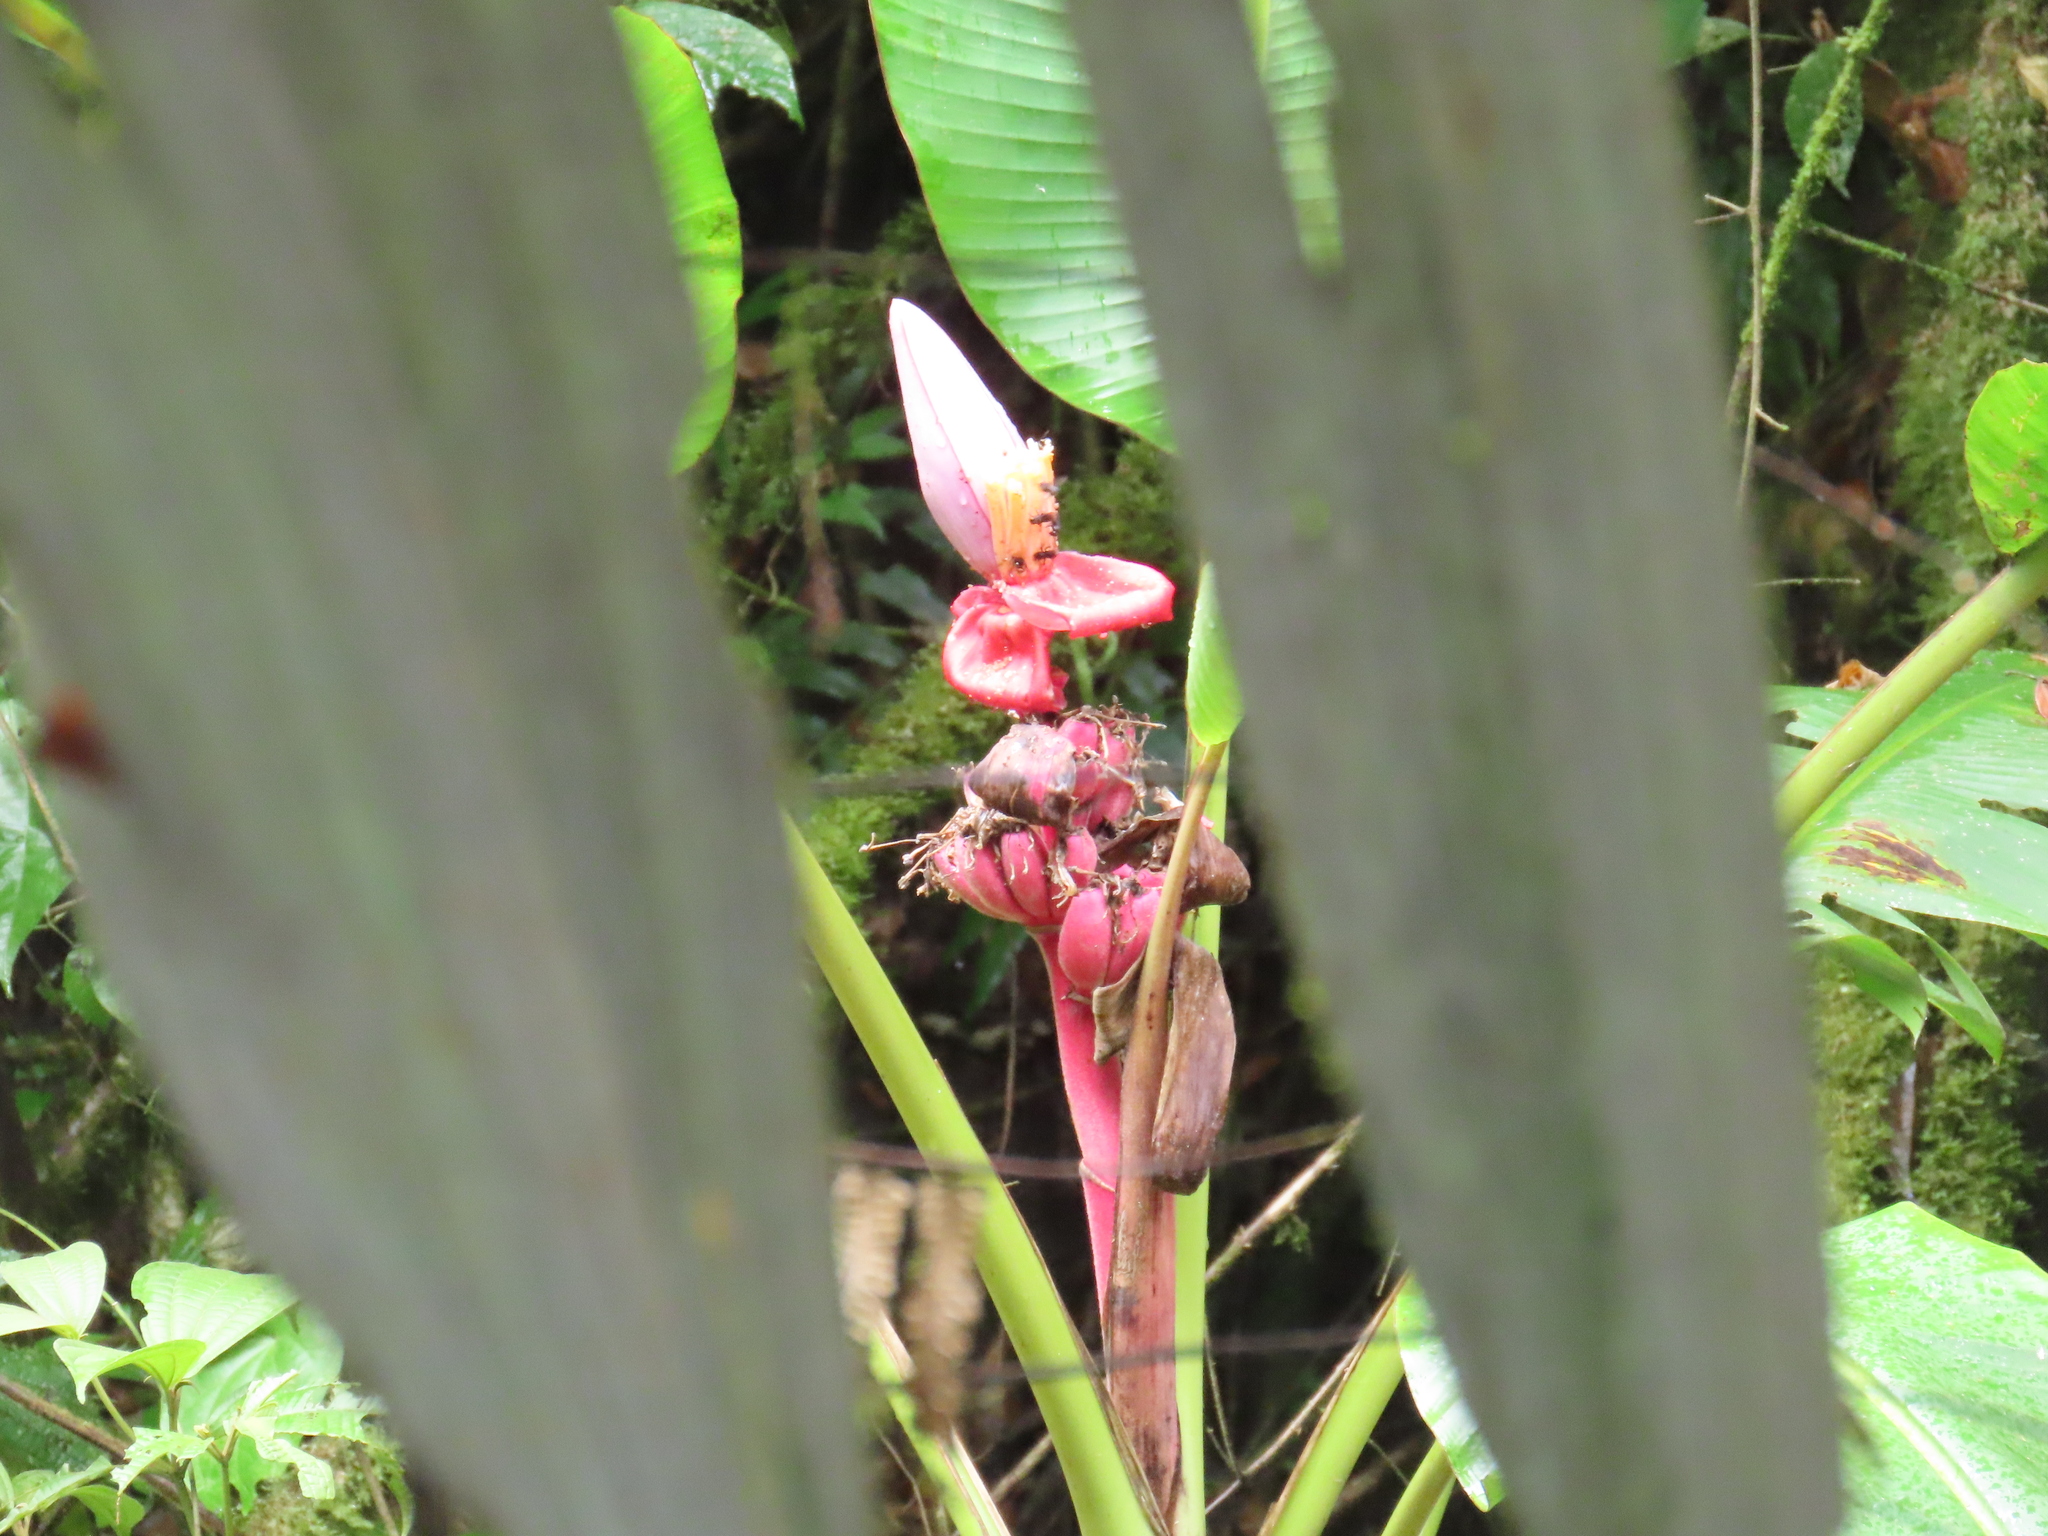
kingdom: Plantae
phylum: Tracheophyta
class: Liliopsida
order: Zingiberales
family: Musaceae
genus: Musa
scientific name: Musa velutina
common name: Pink velvet banana
